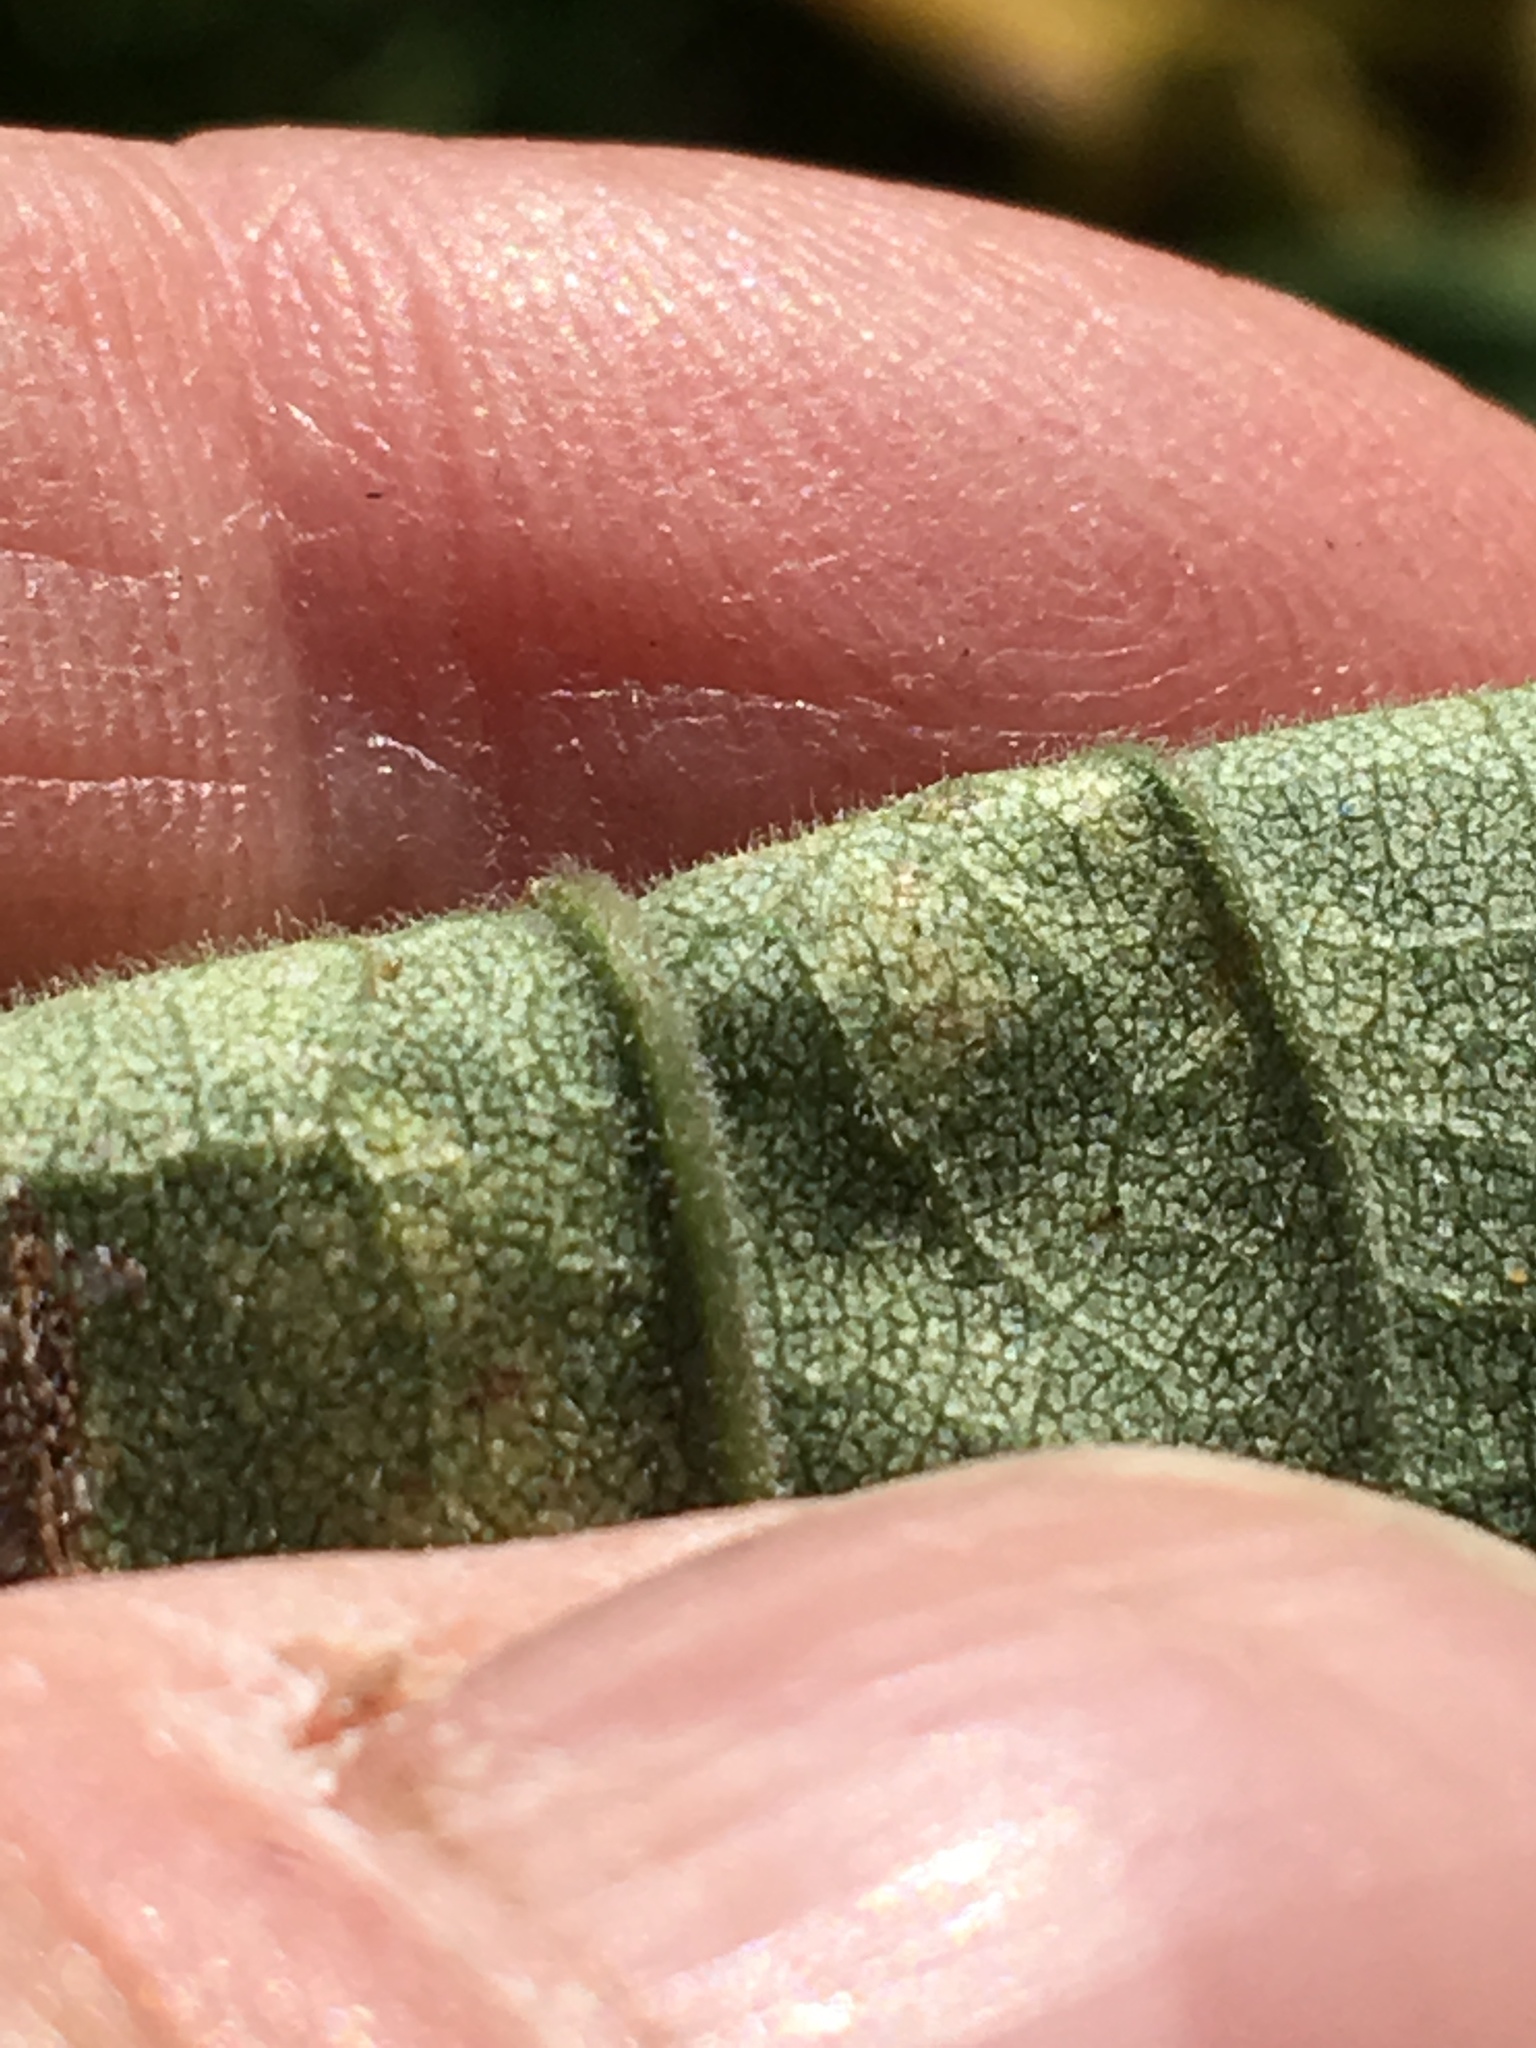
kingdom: Plantae
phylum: Tracheophyta
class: Magnoliopsida
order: Asterales
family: Asteraceae
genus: Solidago
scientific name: Solidago altissima
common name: Late goldenrod
